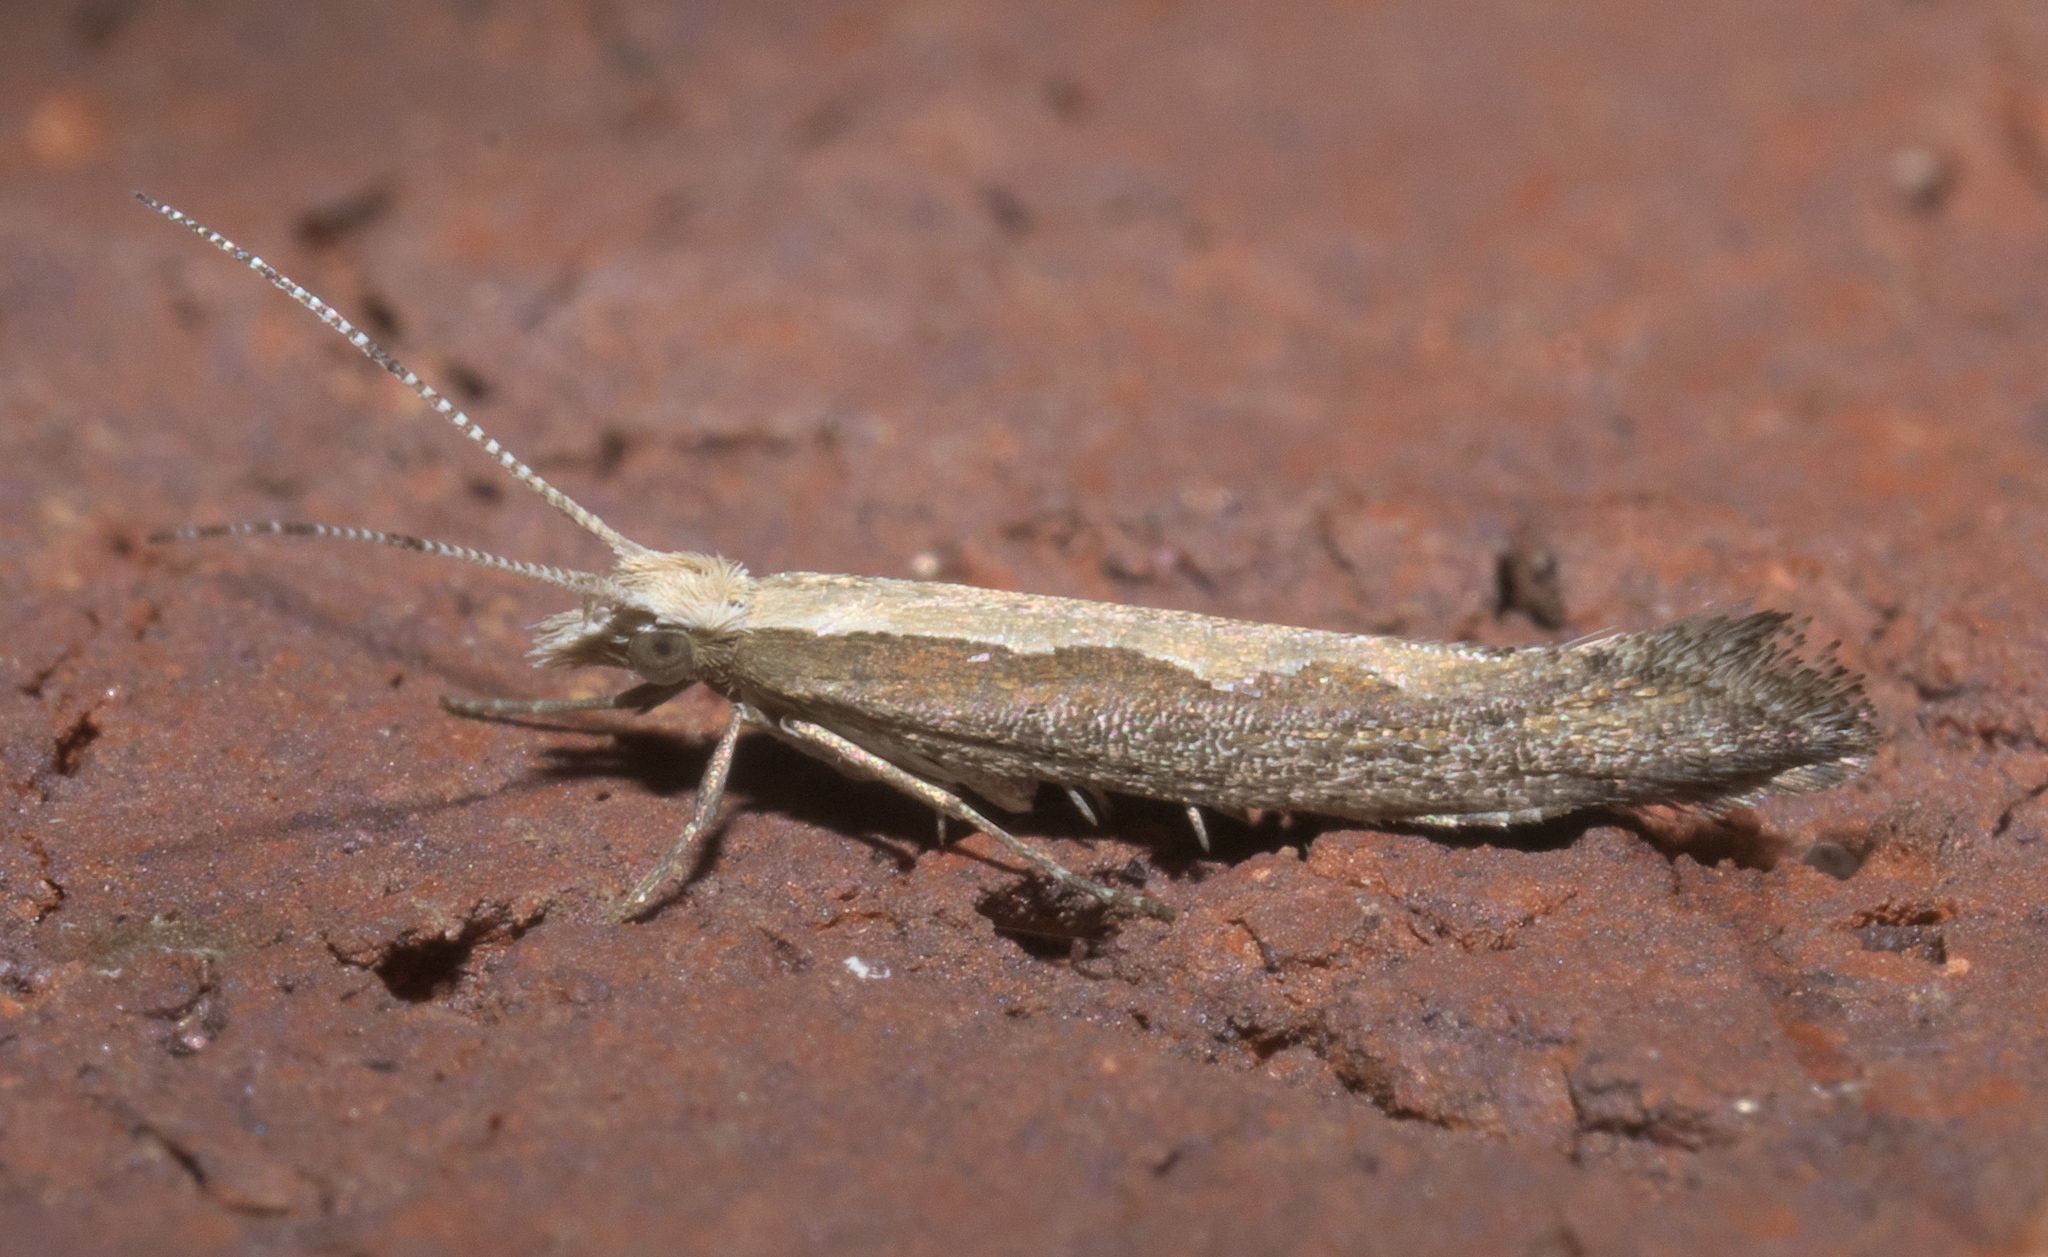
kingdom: Animalia
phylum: Arthropoda
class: Insecta
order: Lepidoptera
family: Plutellidae
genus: Plutella
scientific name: Plutella xylostella
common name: Diamond-back moth
